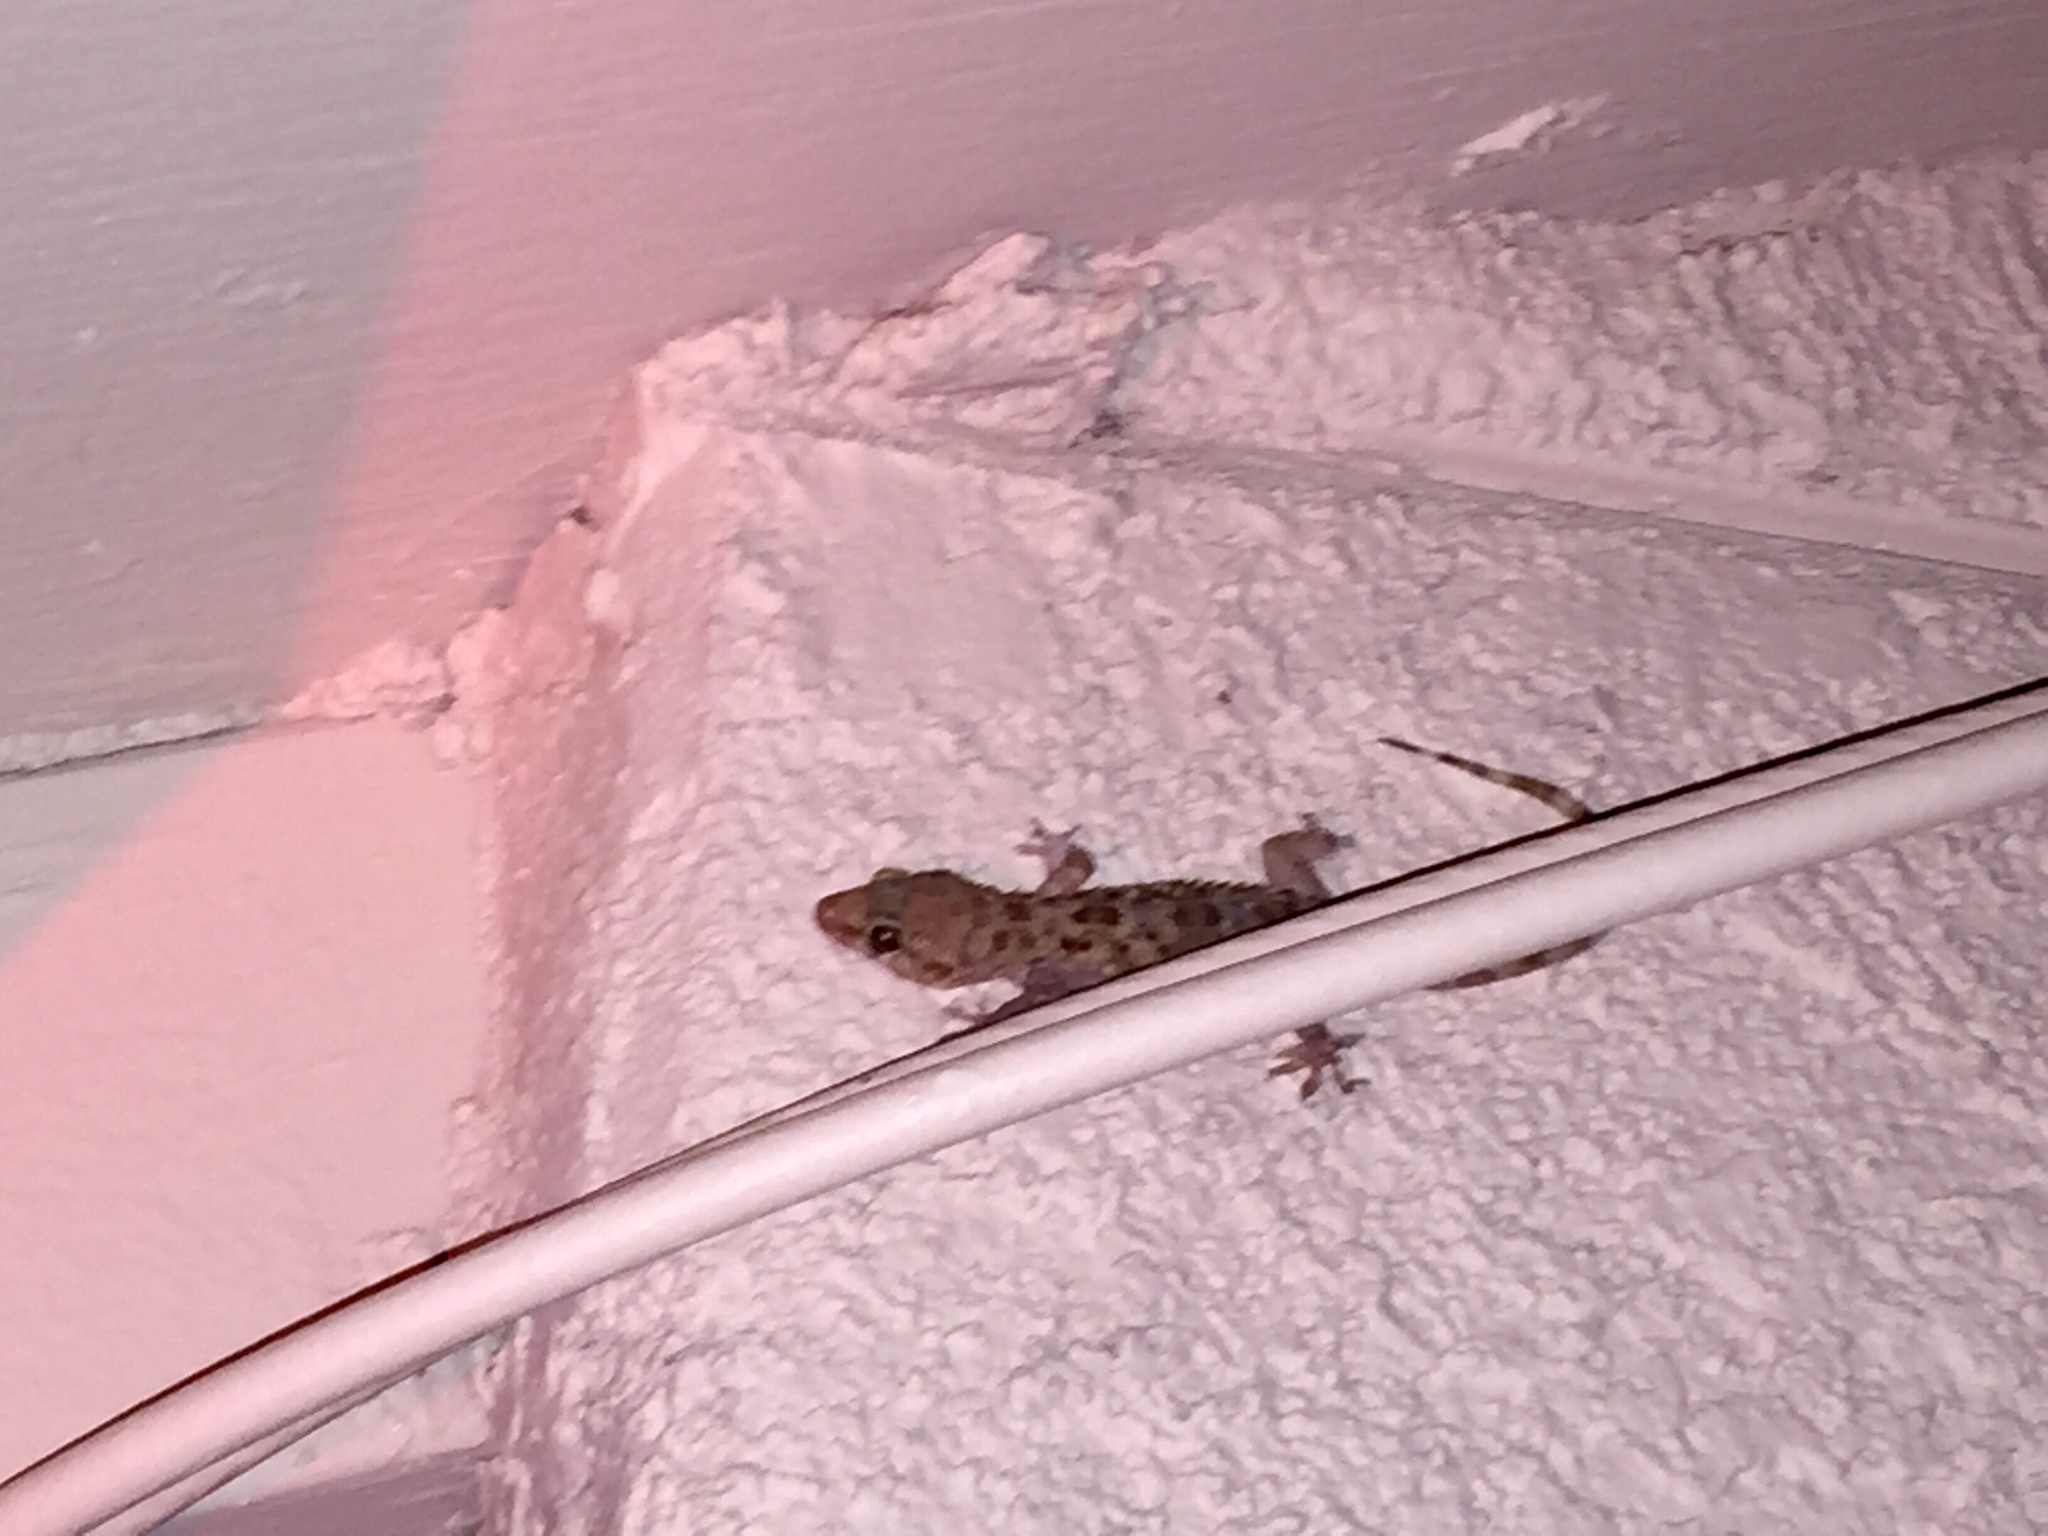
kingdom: Animalia
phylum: Chordata
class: Squamata
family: Gekkonidae
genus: Hemidactylus
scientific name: Hemidactylus turcicus
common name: Turkish gecko
